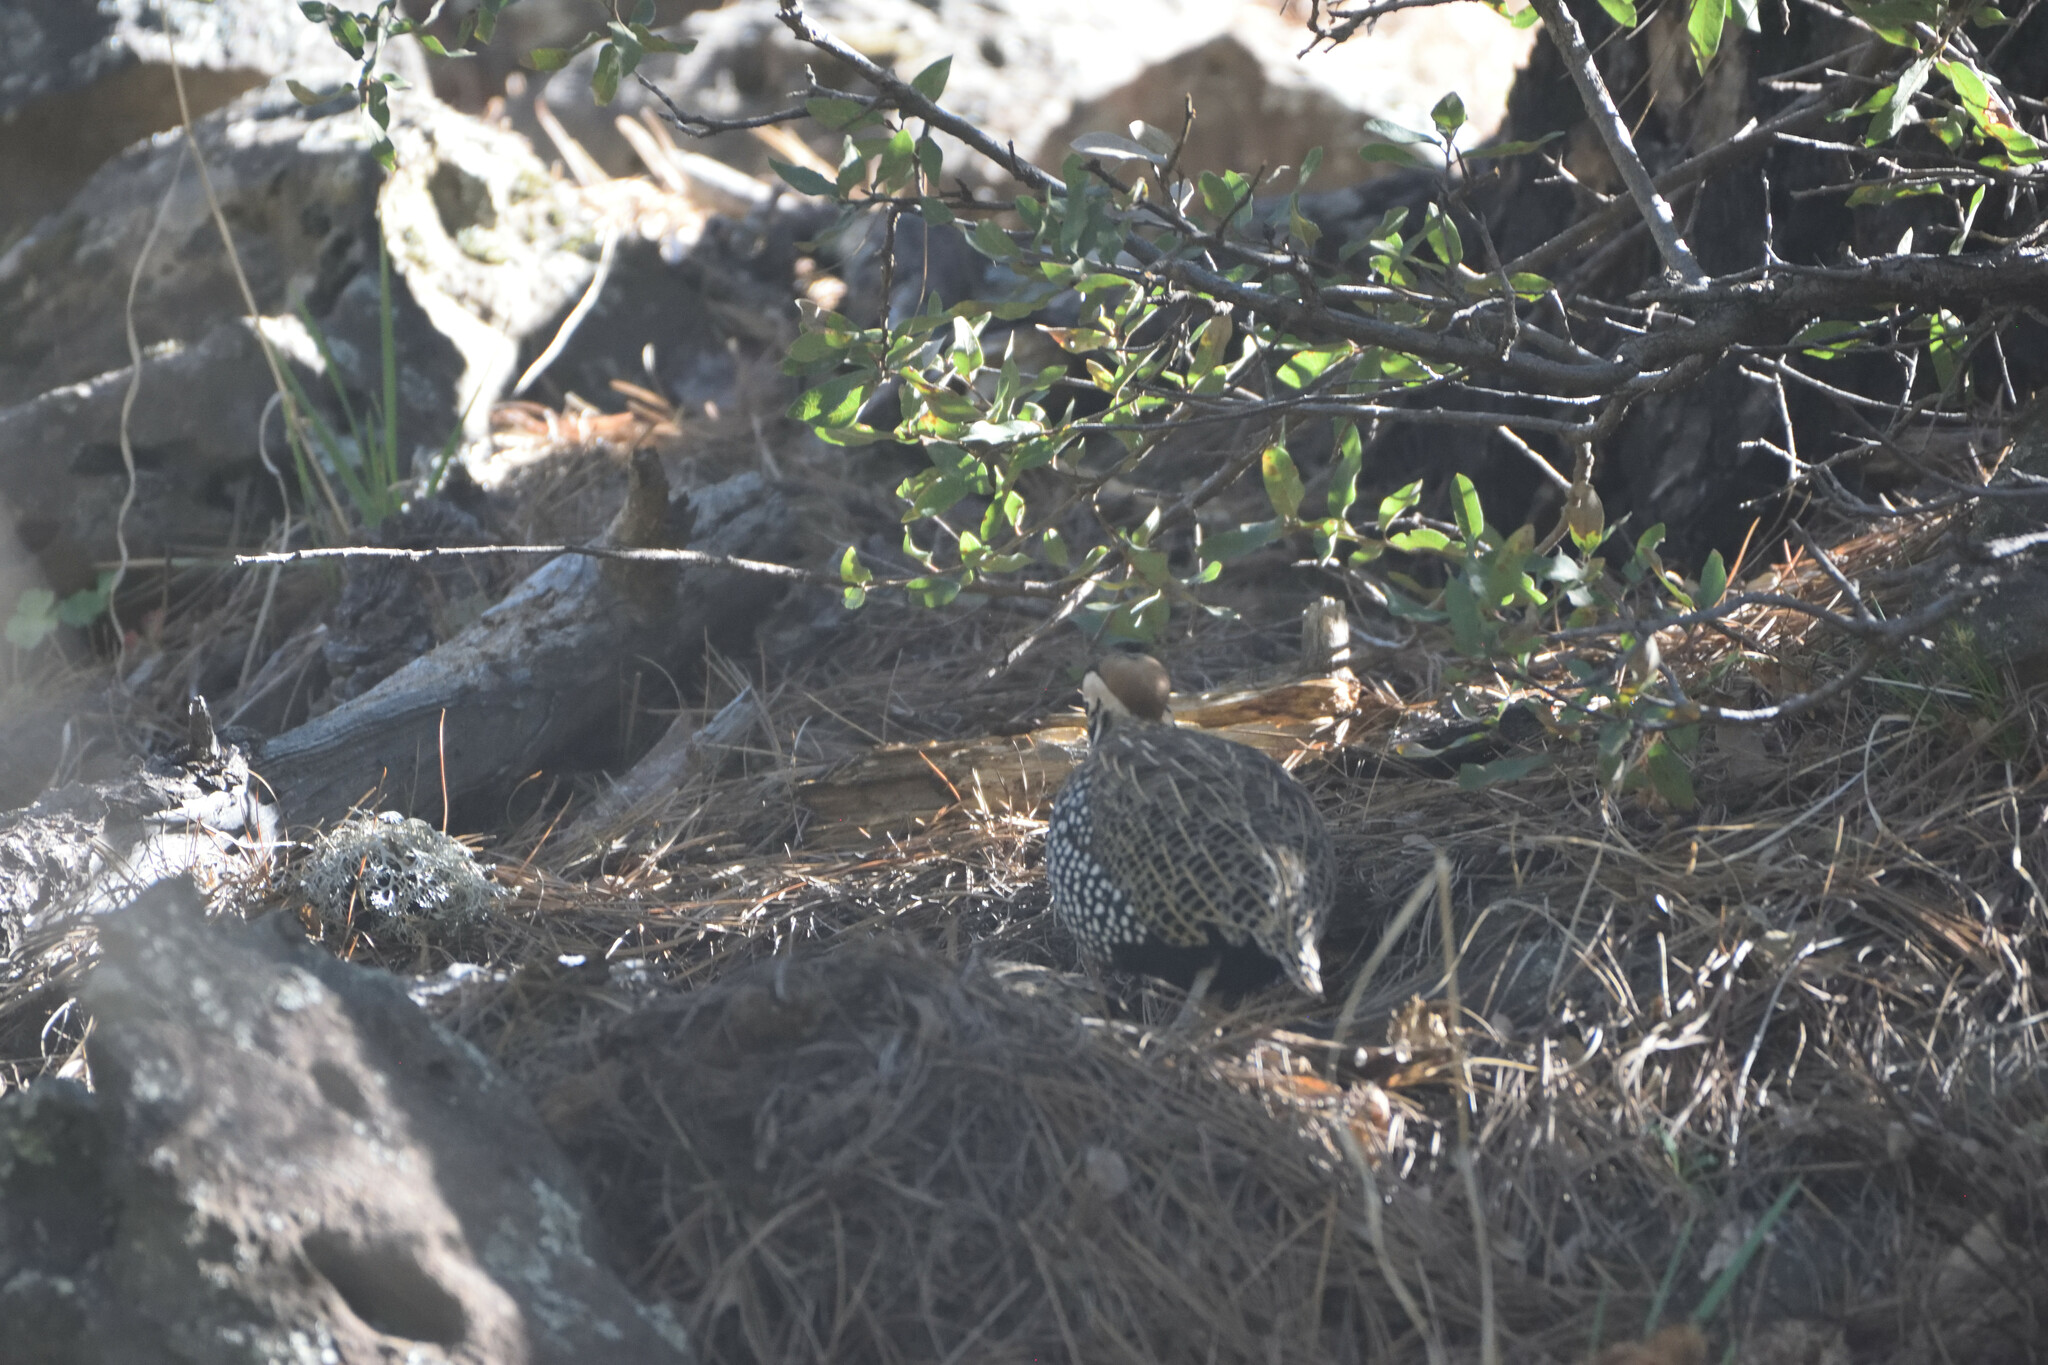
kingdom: Animalia
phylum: Chordata
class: Aves
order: Galliformes
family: Odontophoridae
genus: Cyrtonyx
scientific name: Cyrtonyx montezumae
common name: Montezuma quail
